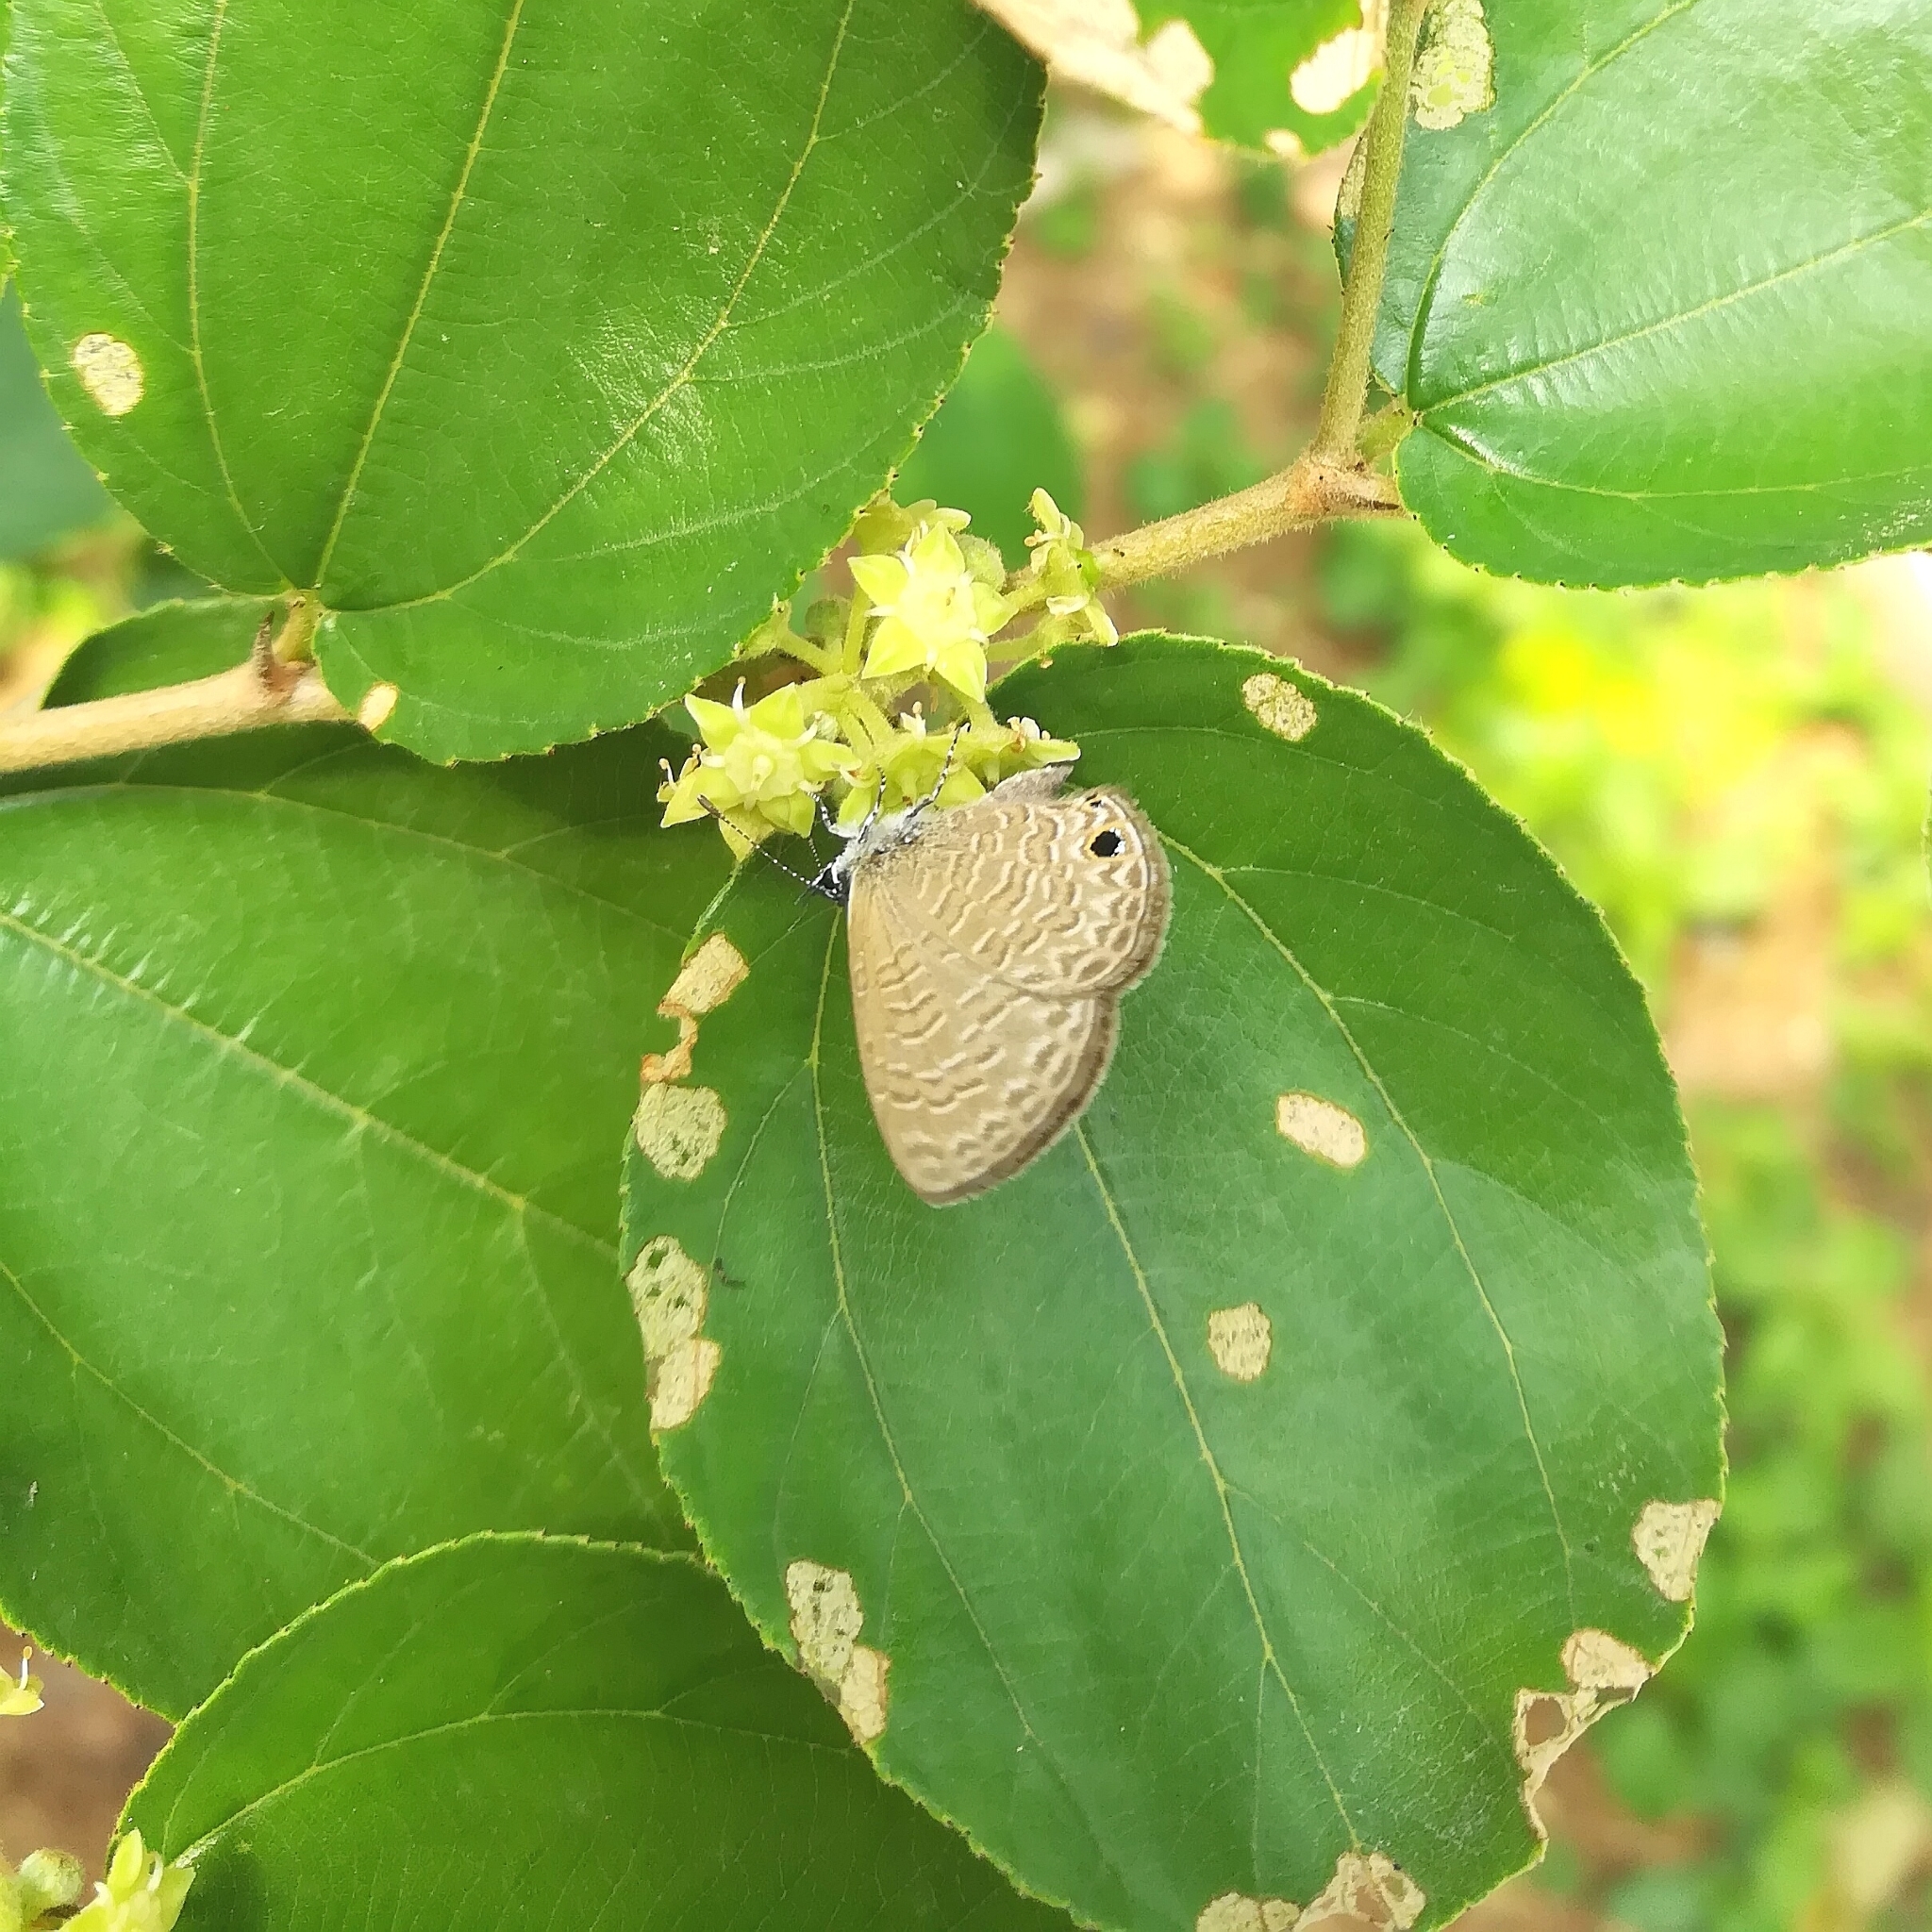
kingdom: Animalia
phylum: Arthropoda
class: Insecta
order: Lepidoptera
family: Lycaenidae
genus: Prosotas
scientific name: Prosotas dubiosa
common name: Tailless lineblue
